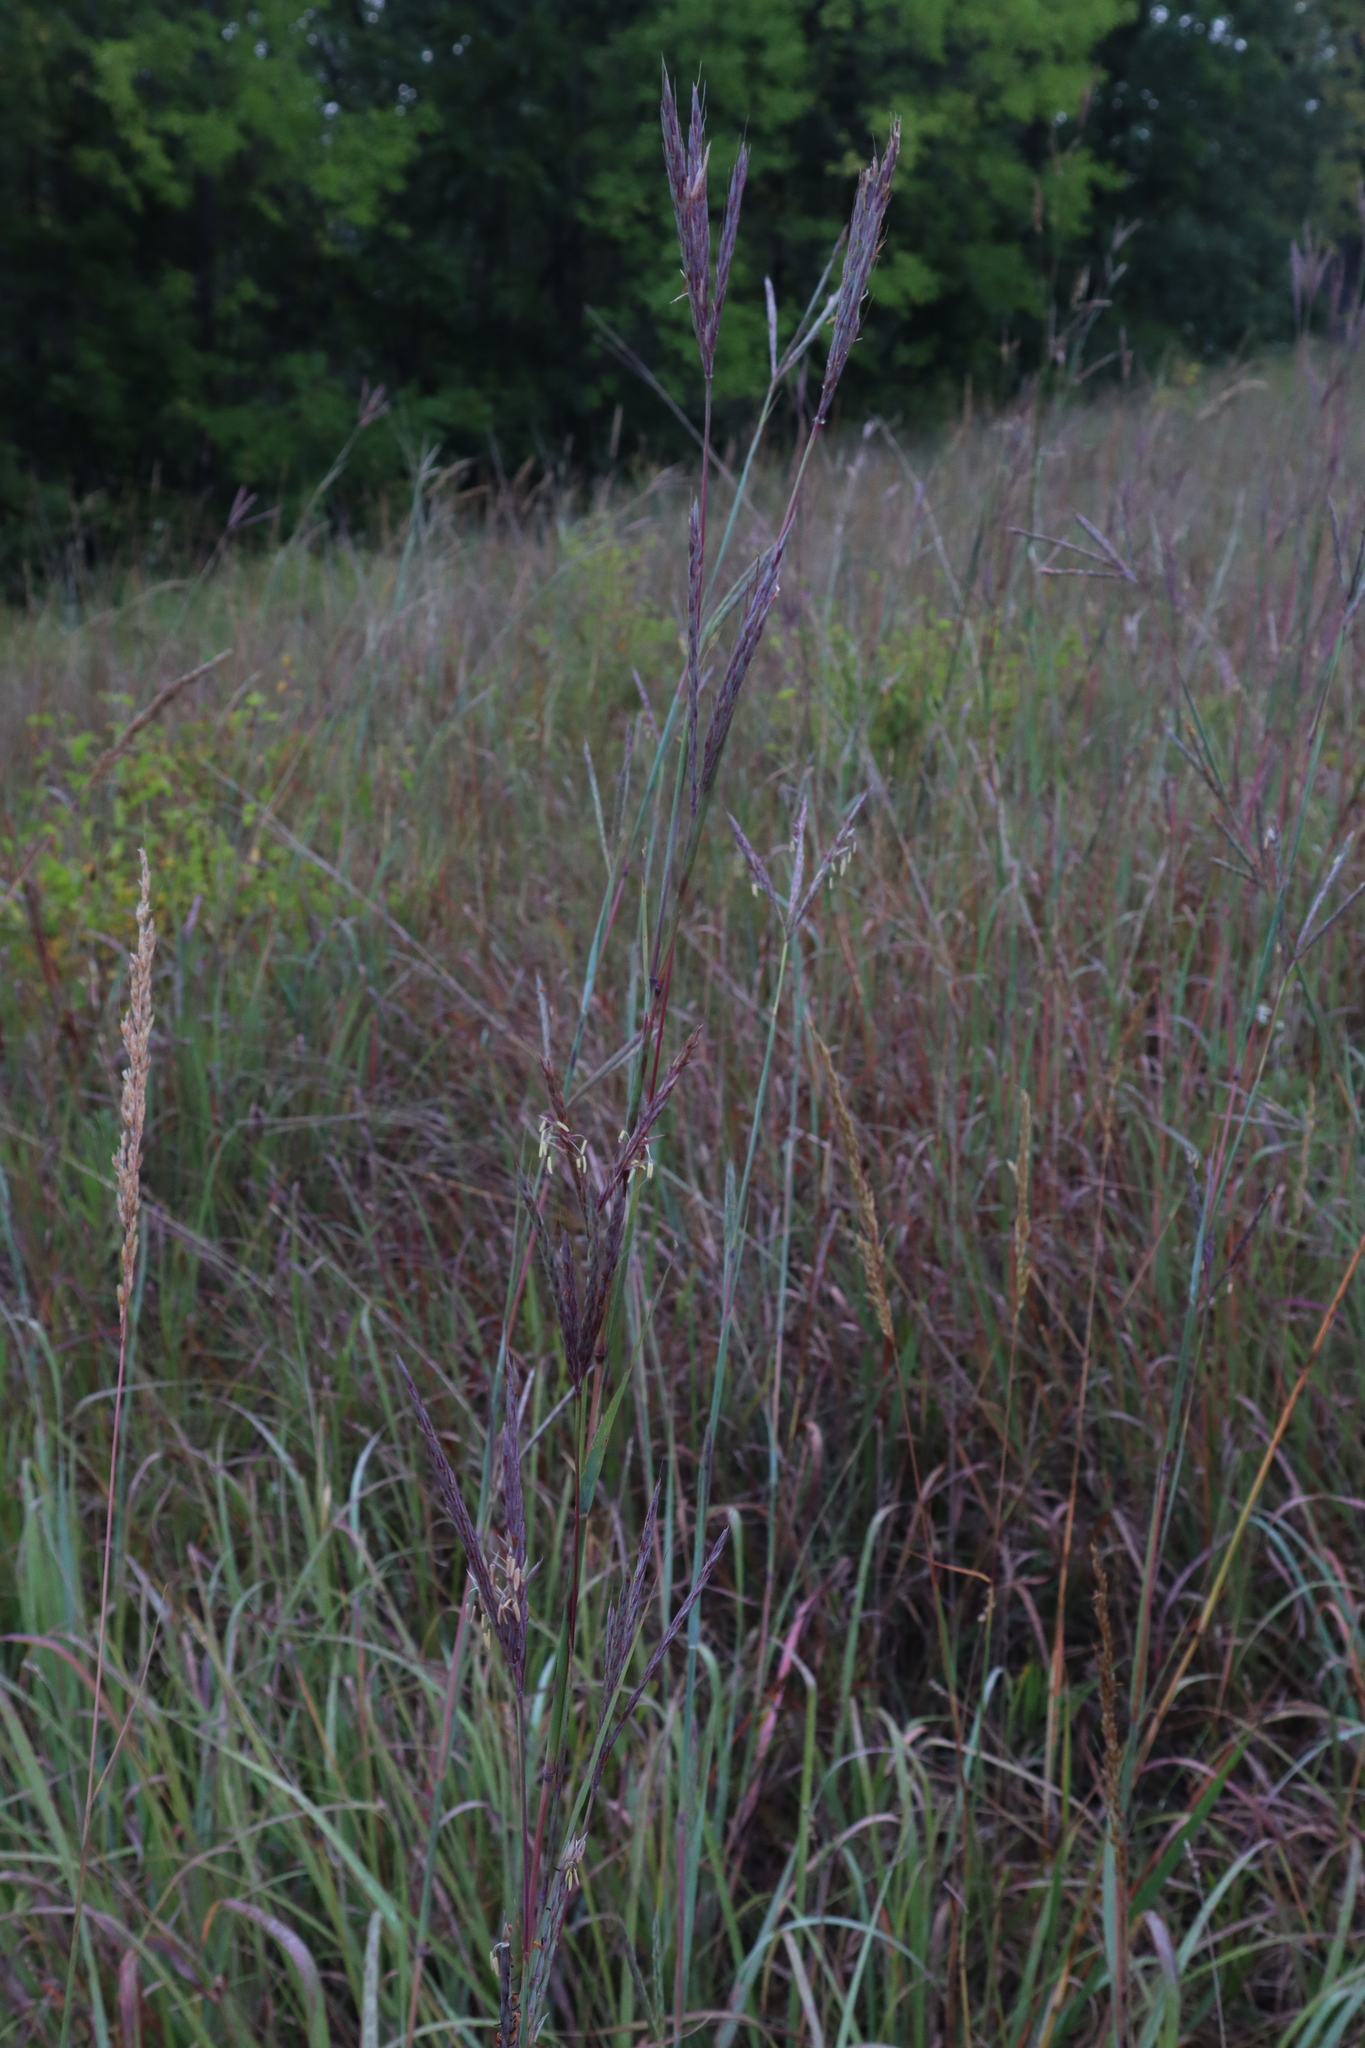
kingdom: Plantae
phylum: Tracheophyta
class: Liliopsida
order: Poales
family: Poaceae
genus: Andropogon
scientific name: Andropogon gerardi
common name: Big bluestem
